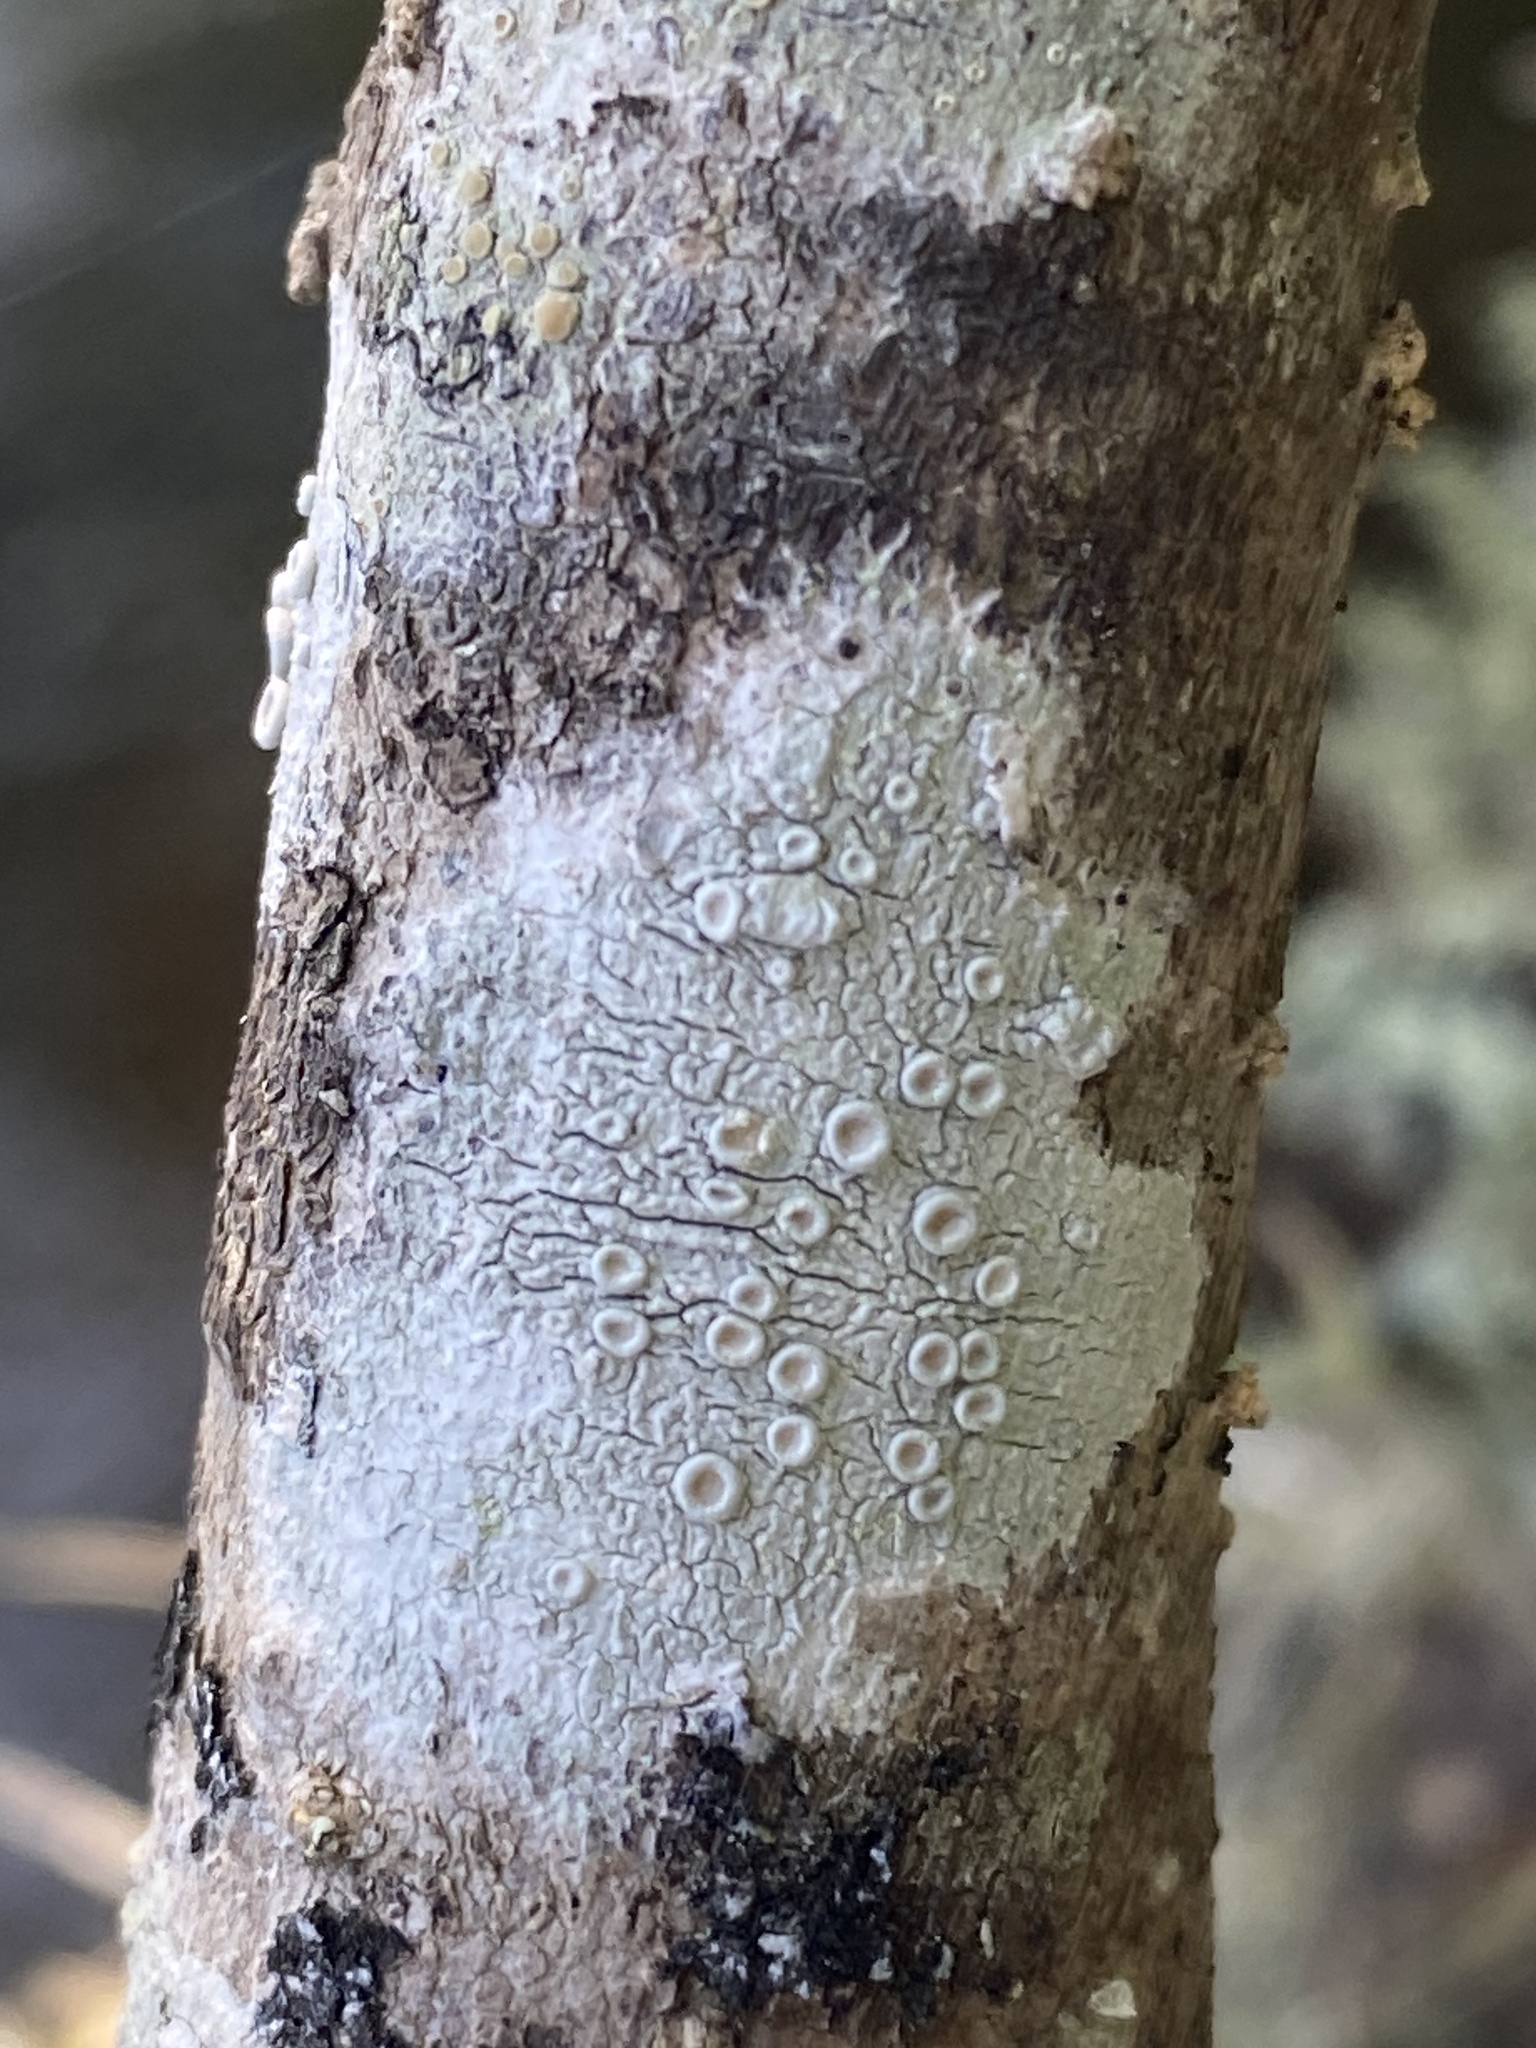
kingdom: Fungi
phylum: Ascomycota
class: Lecanoromycetes
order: Pertusariales
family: Ochrolechiaceae
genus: Ochrolechia
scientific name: Ochrolechia africana
